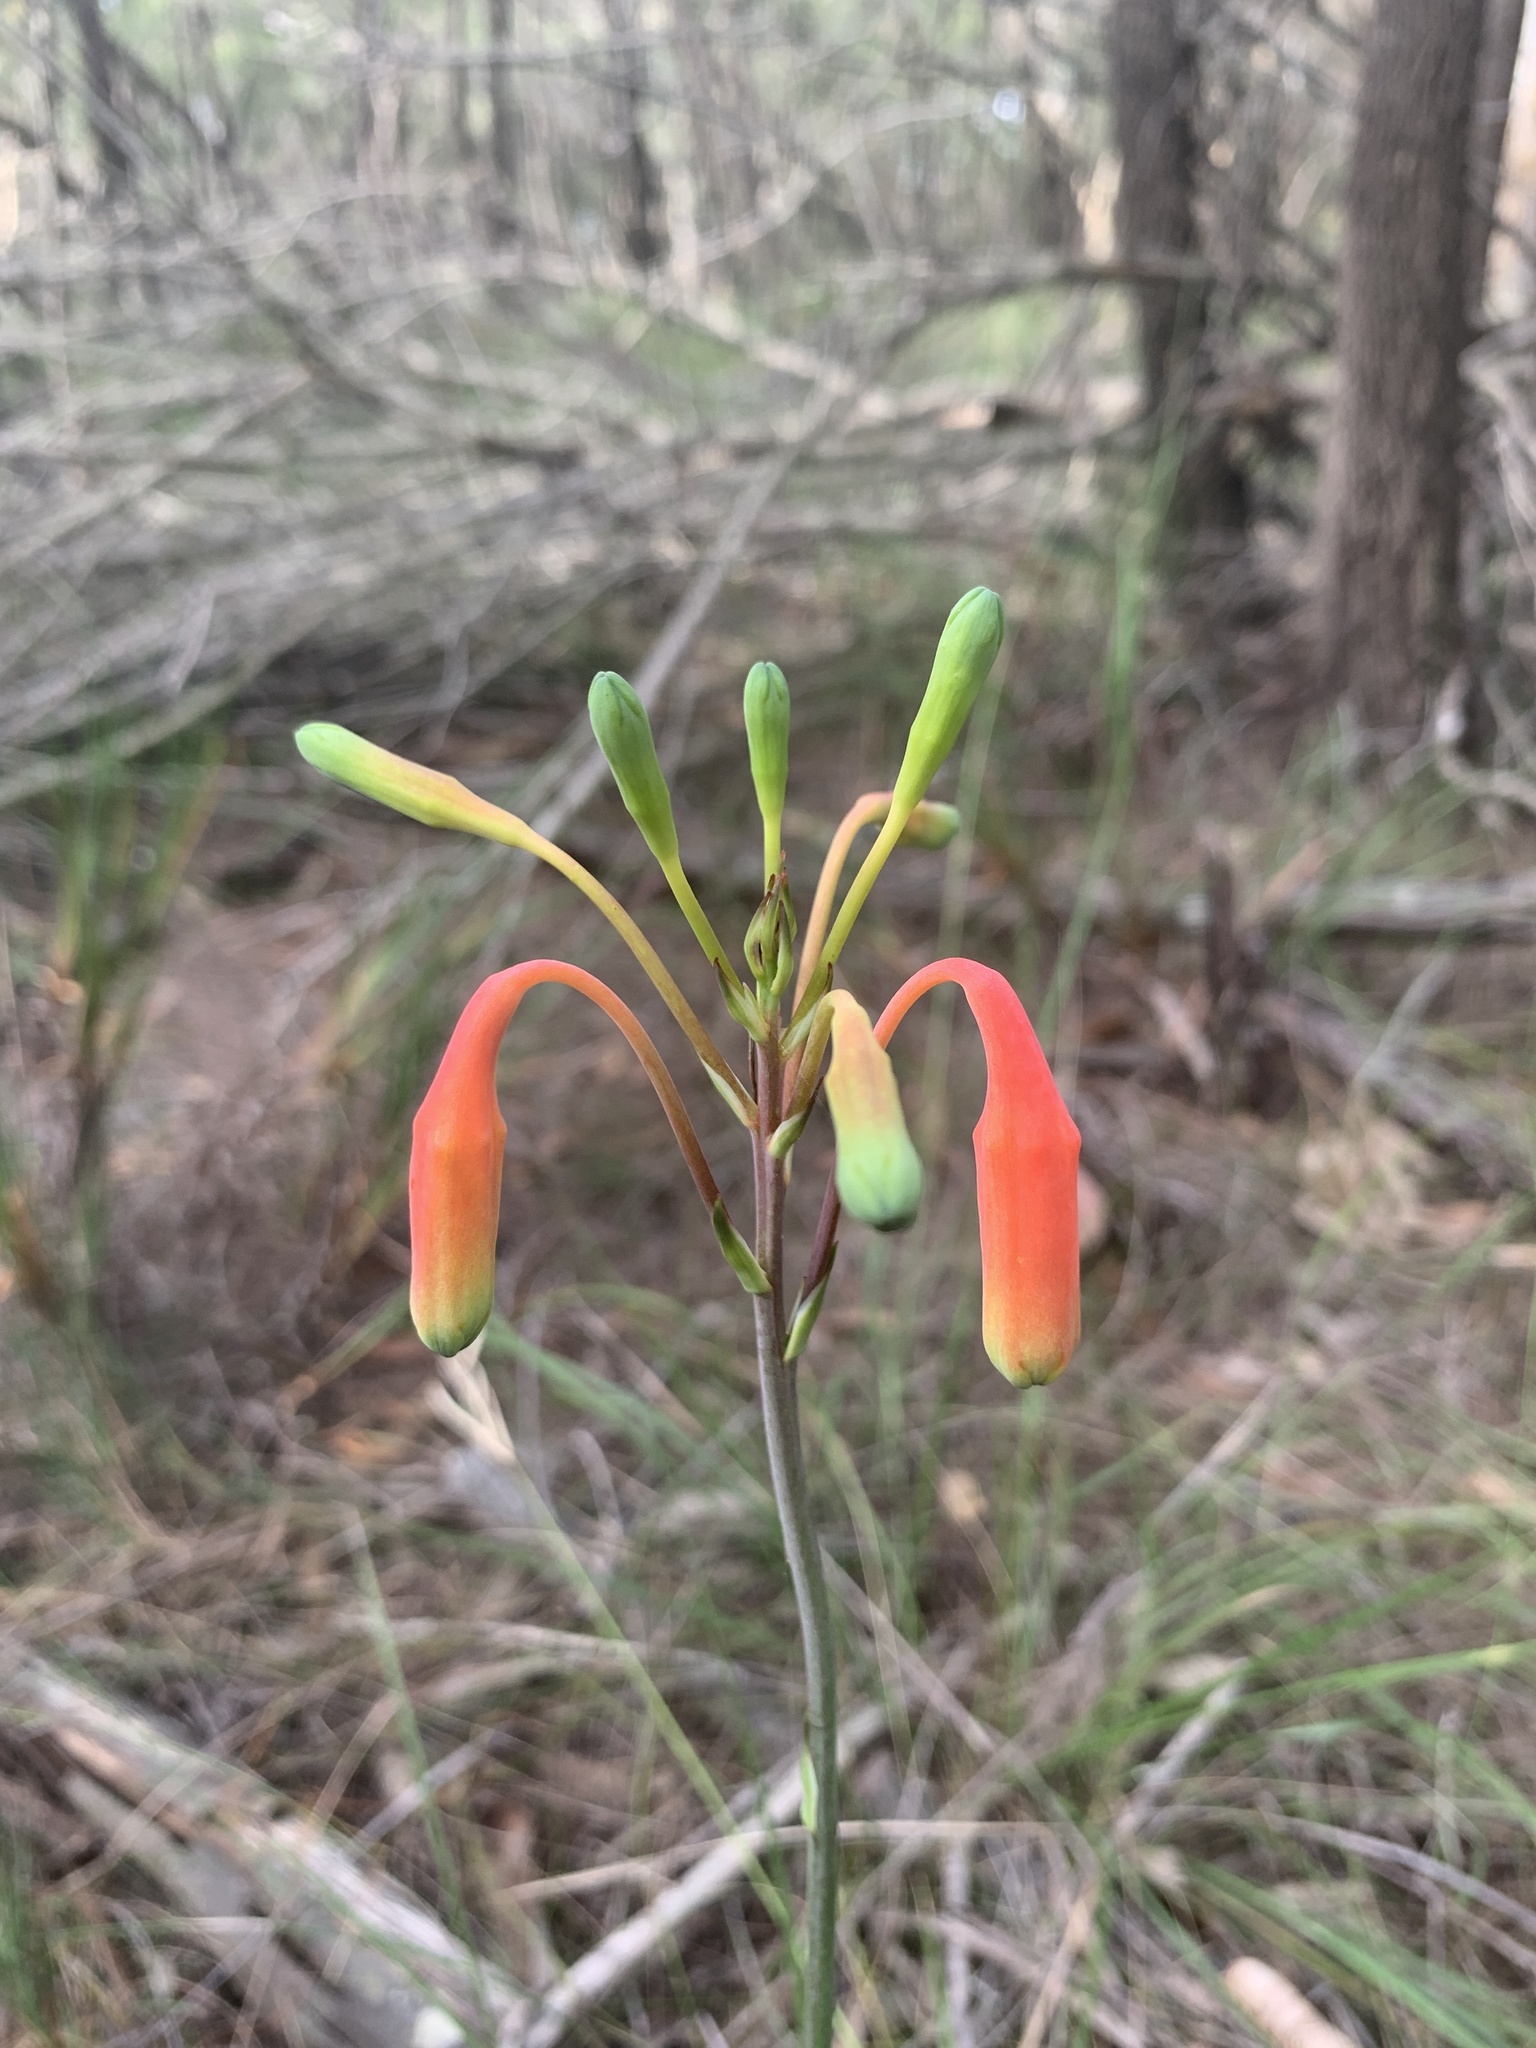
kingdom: Plantae
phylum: Tracheophyta
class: Liliopsida
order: Asparagales
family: Blandfordiaceae
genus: Blandfordia
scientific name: Blandfordia nobilis
